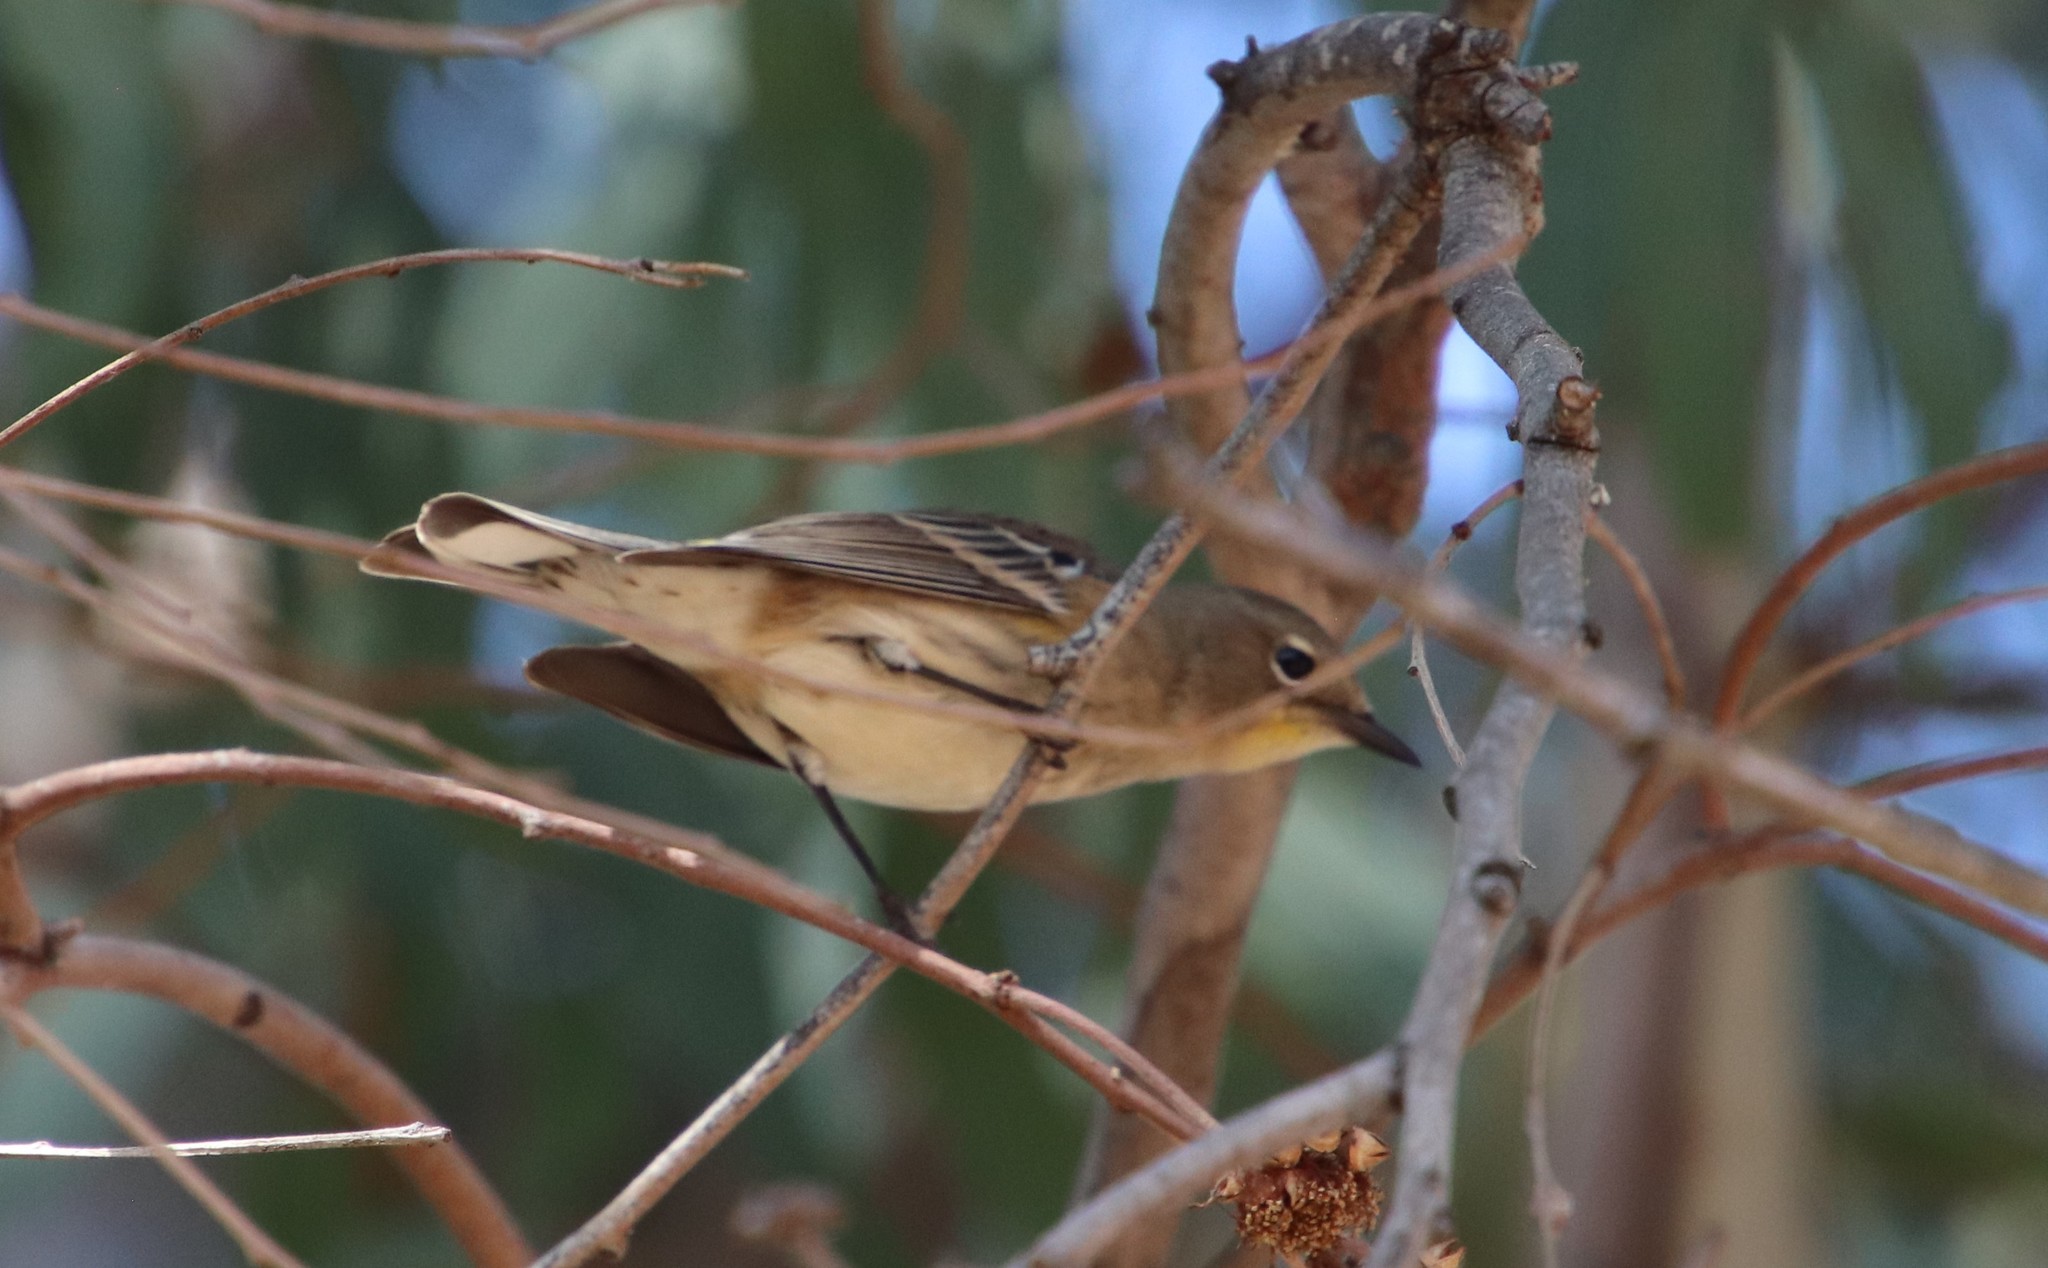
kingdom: Animalia
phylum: Chordata
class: Aves
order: Passeriformes
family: Parulidae
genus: Setophaga
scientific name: Setophaga auduboni
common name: Audubon's warbler
